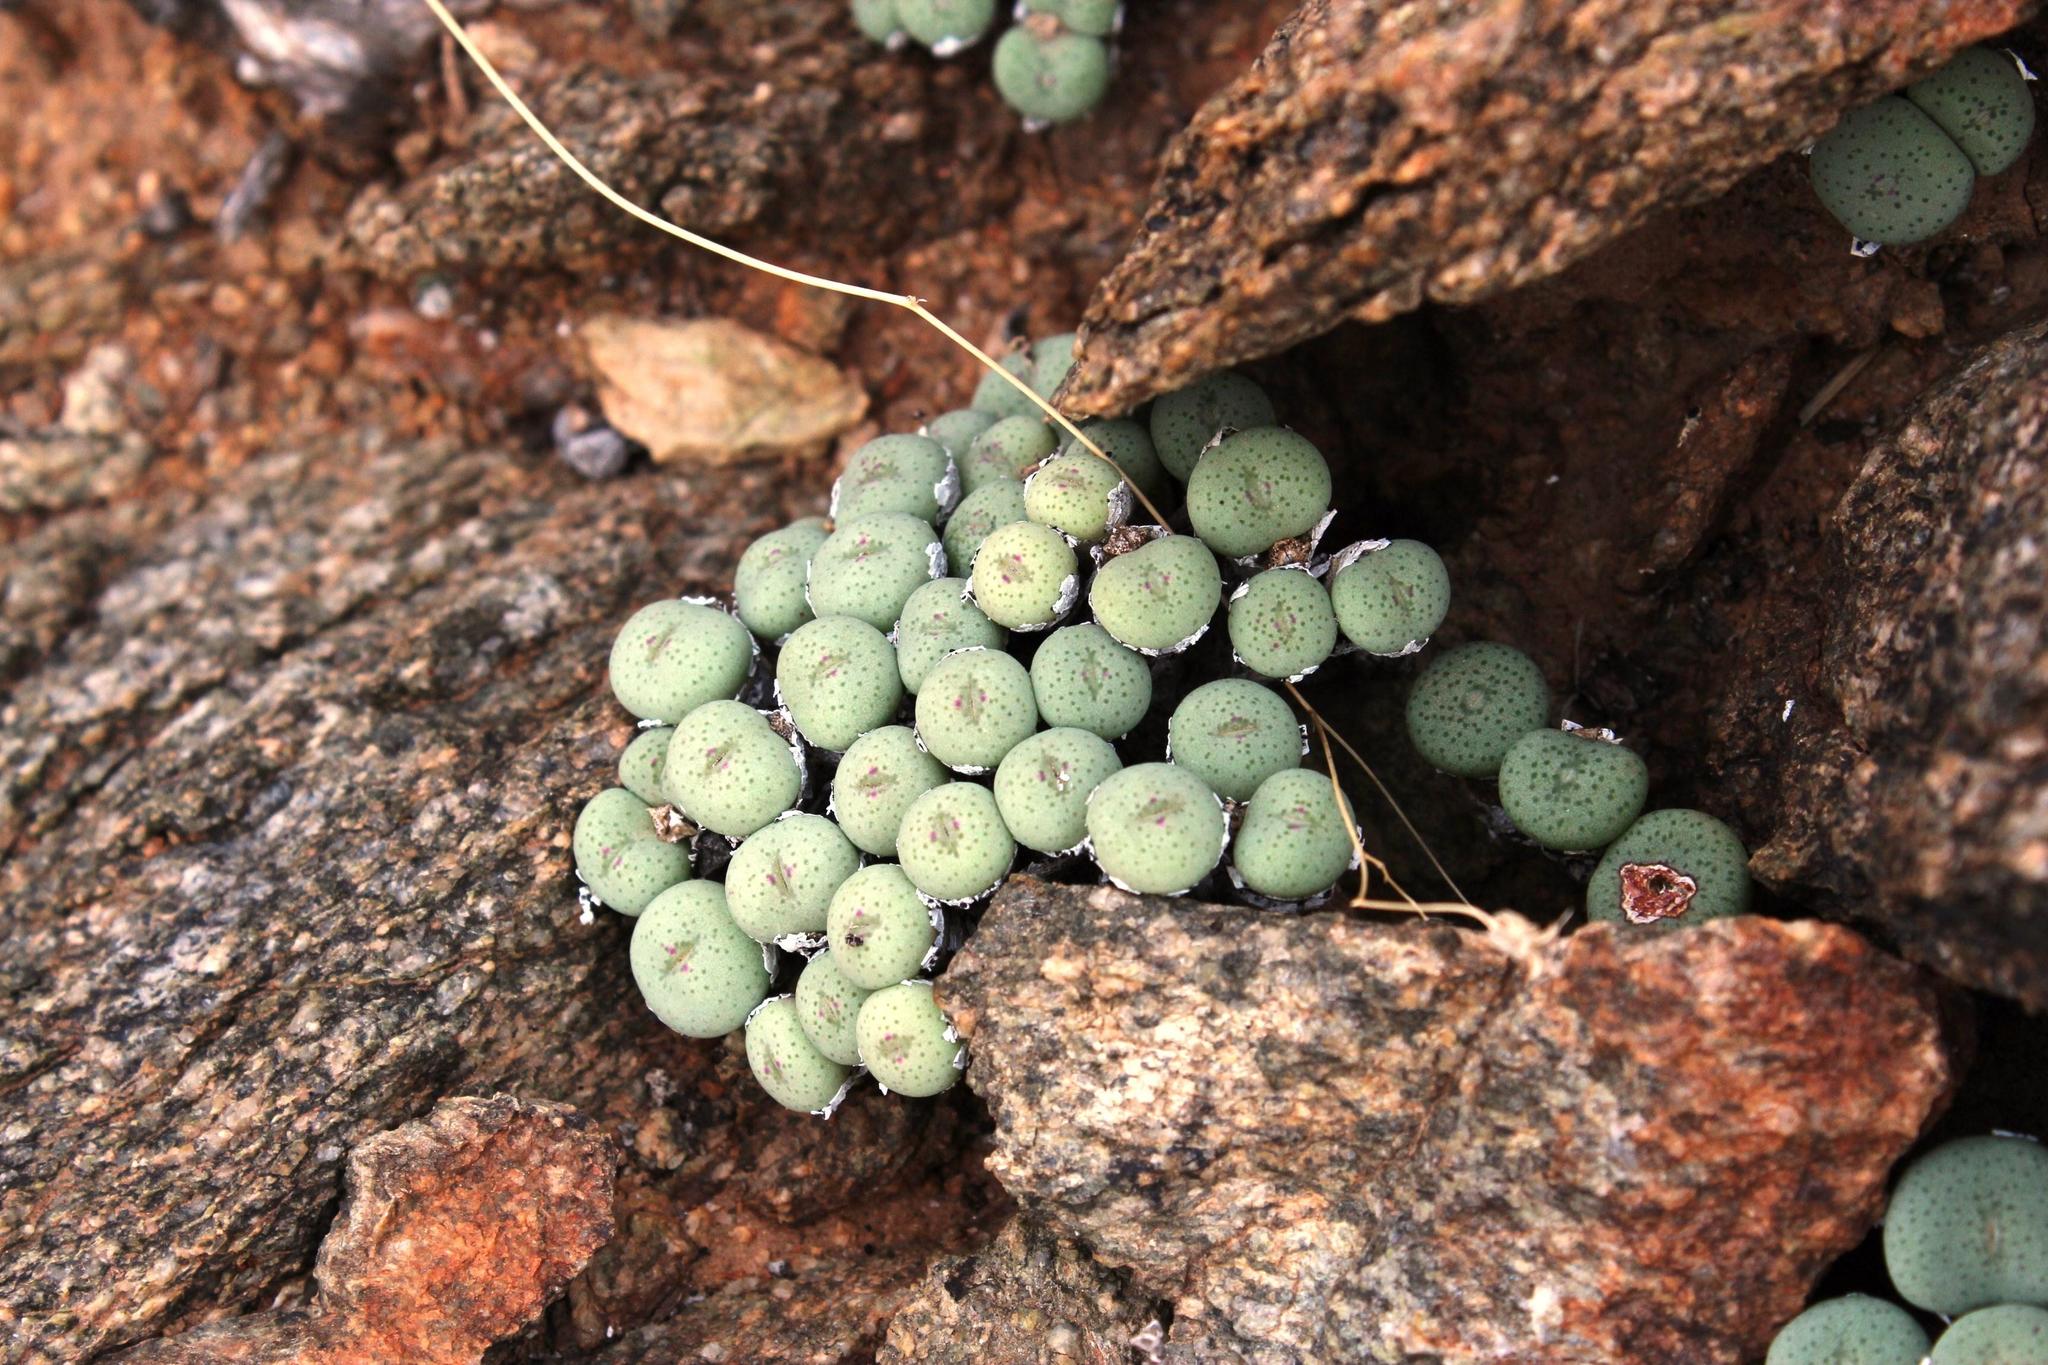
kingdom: Plantae
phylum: Tracheophyta
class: Magnoliopsida
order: Caryophyllales
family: Aizoaceae
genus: Conophytum
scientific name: Conophytum jucundum
